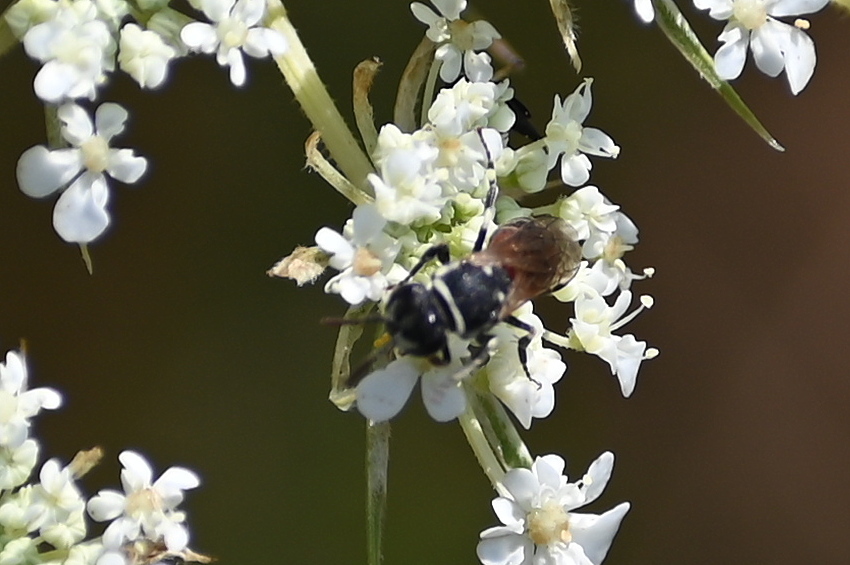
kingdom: Animalia
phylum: Arthropoda
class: Insecta
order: Hymenoptera
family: Colletidae
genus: Hylaeus
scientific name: Hylaeus variegatus
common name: Masked bee
